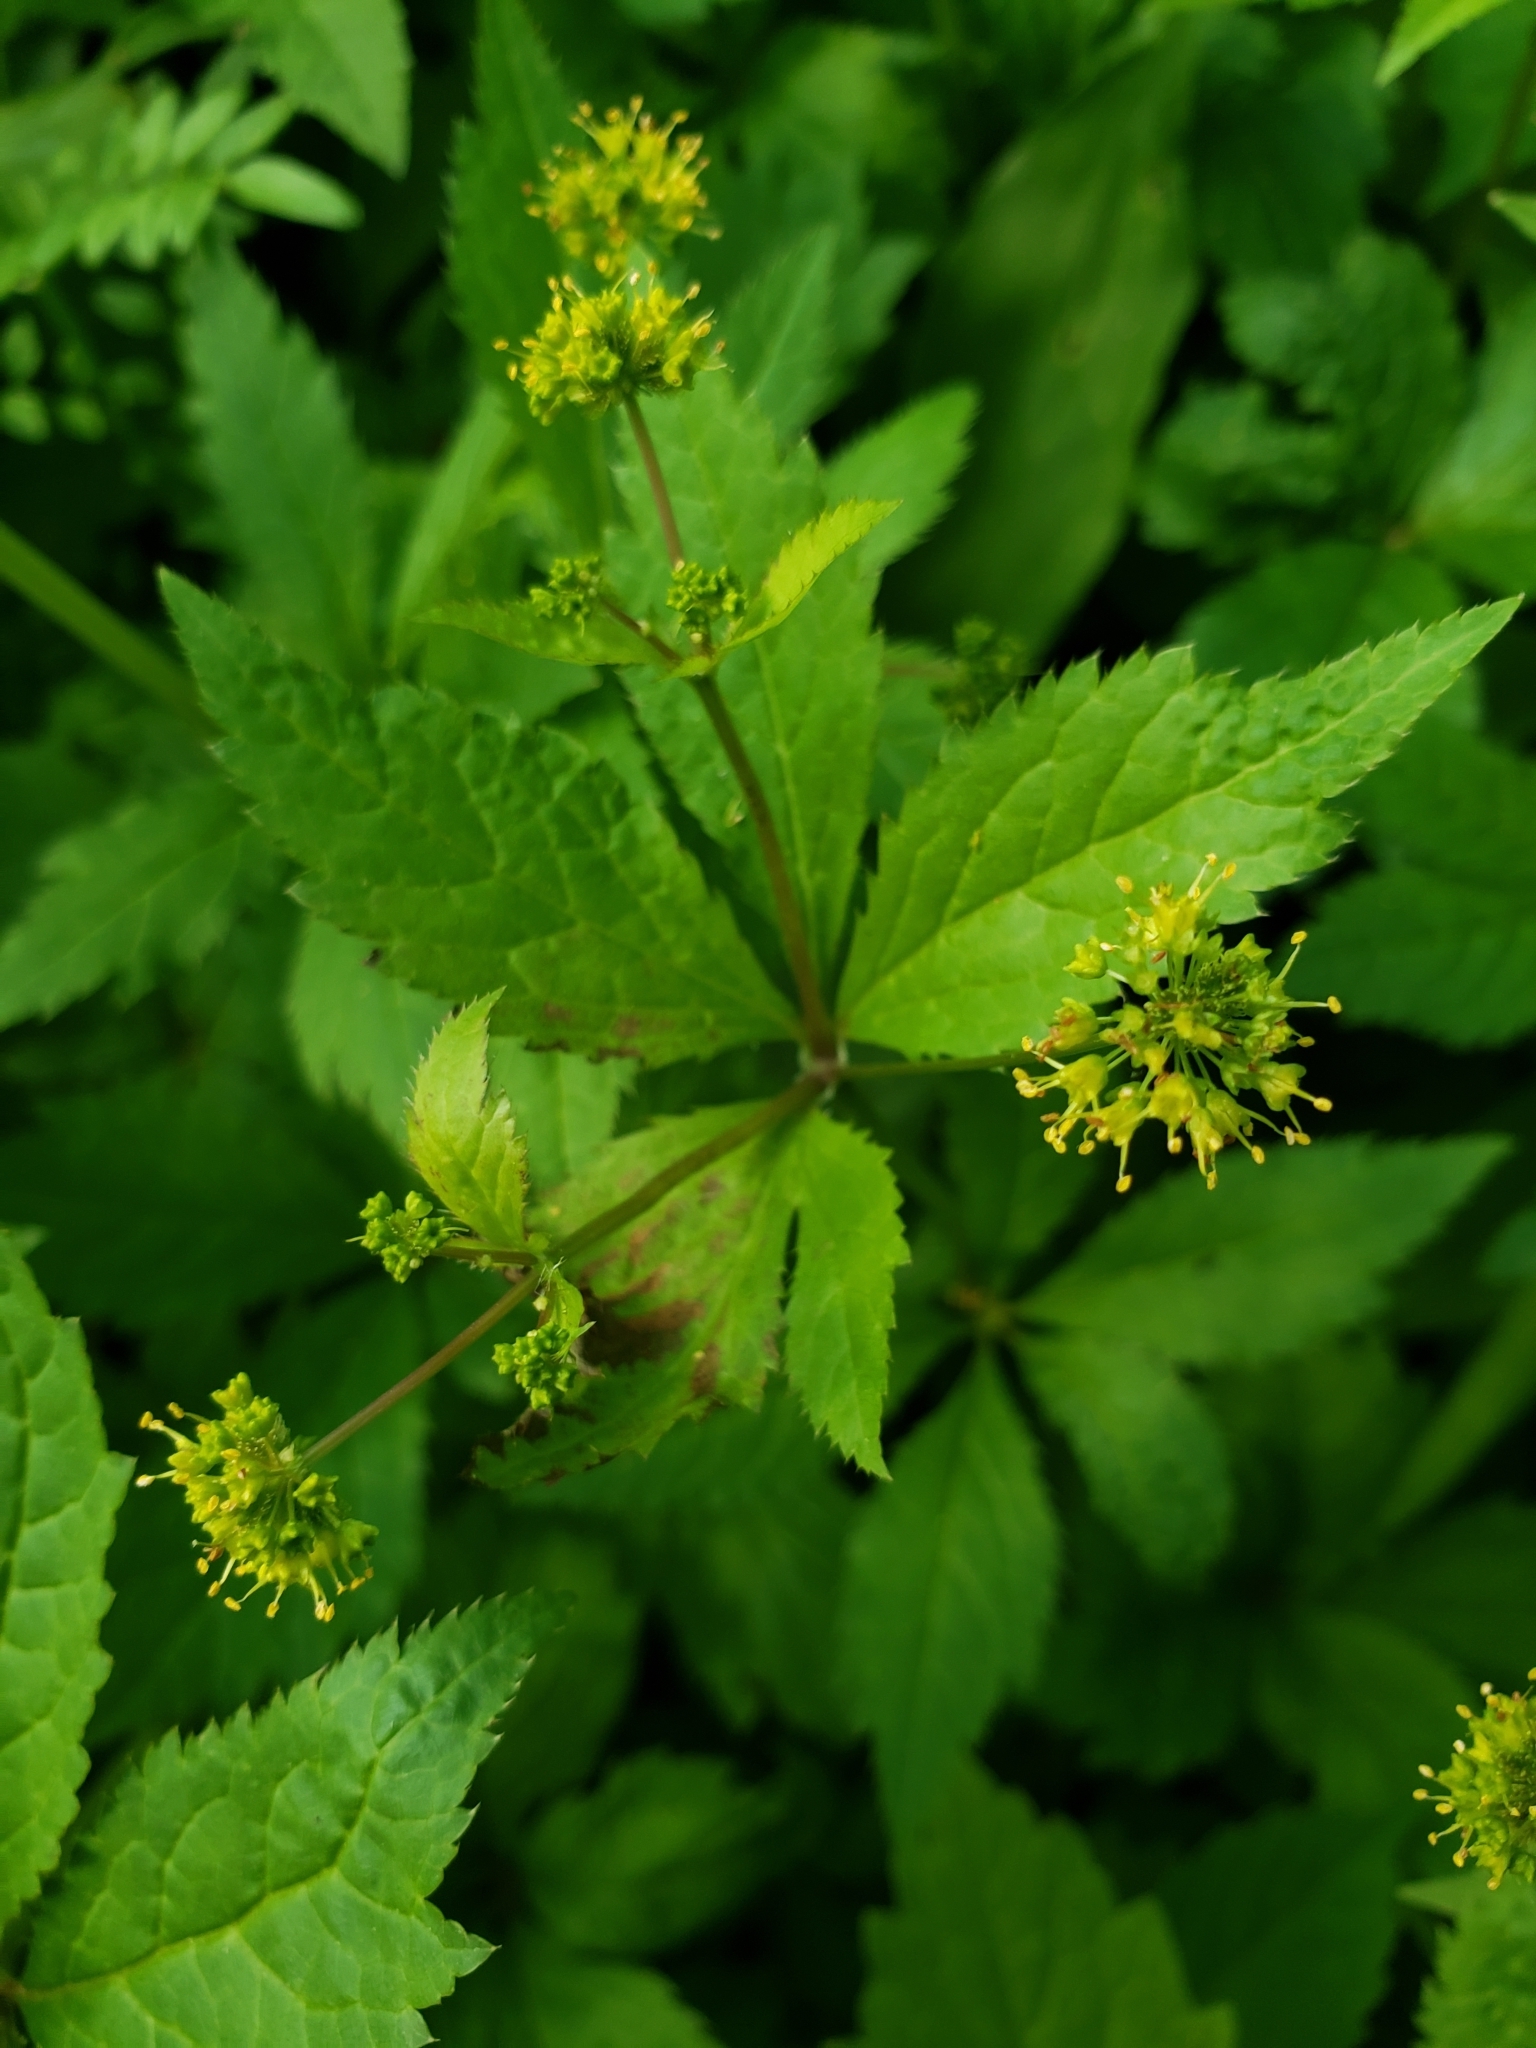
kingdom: Plantae
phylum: Tracheophyta
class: Magnoliopsida
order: Apiales
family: Apiaceae
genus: Sanicula
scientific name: Sanicula odorata
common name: Cluster sanicle
